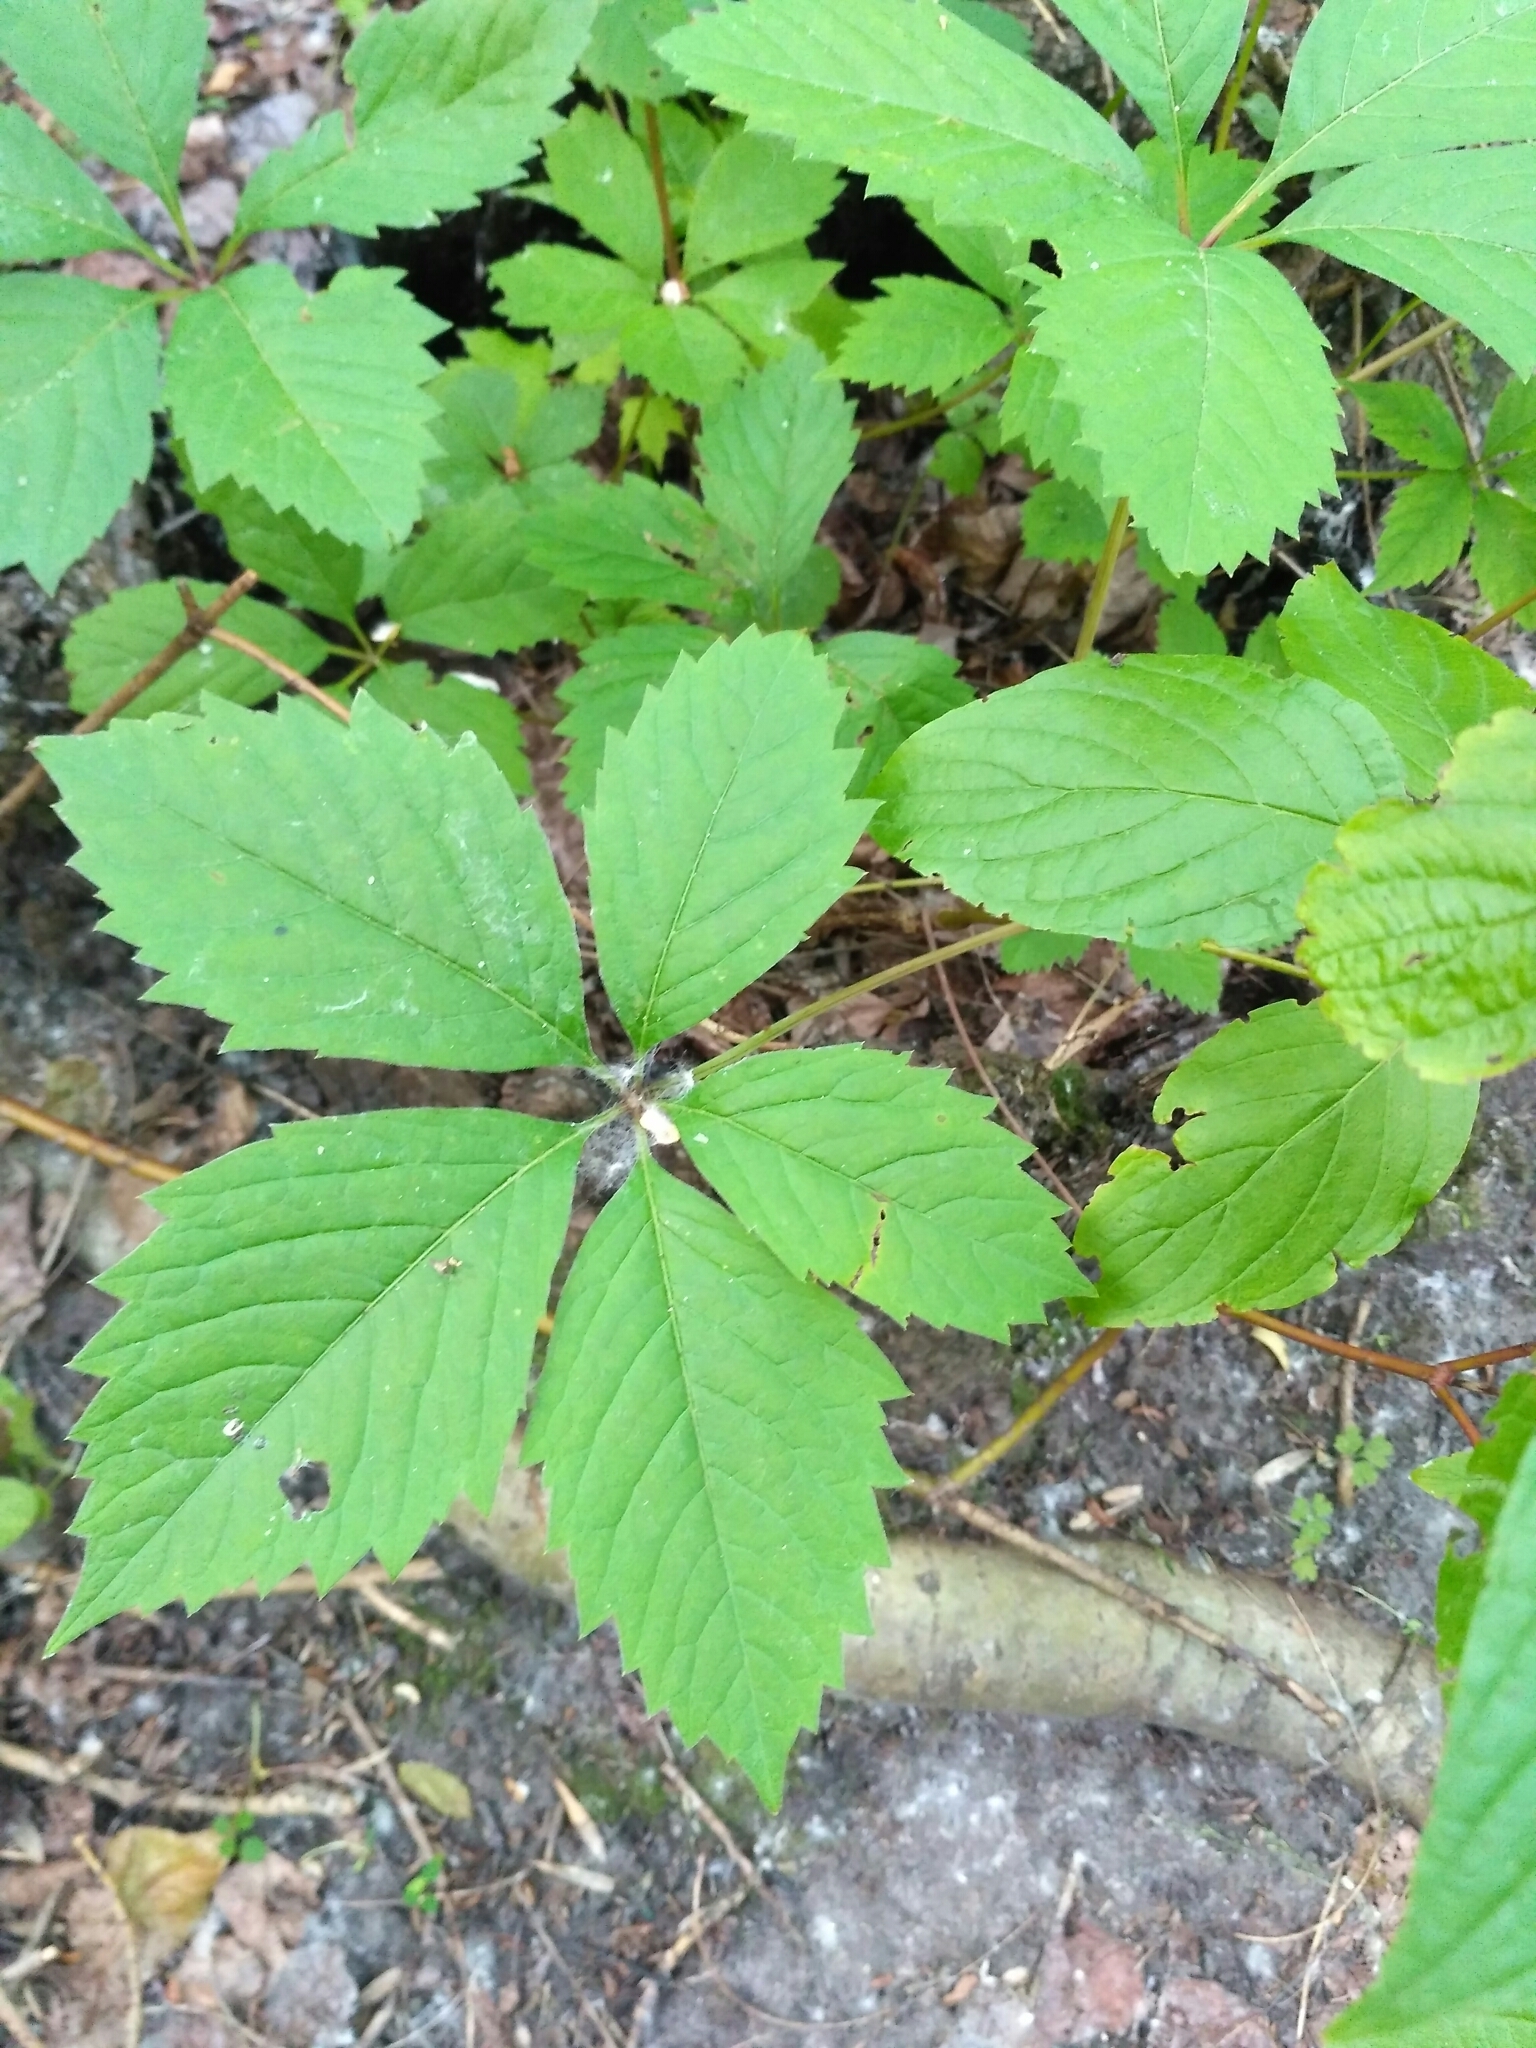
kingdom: Plantae
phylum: Tracheophyta
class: Magnoliopsida
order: Vitales
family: Vitaceae
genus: Parthenocissus
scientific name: Parthenocissus inserta
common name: False virginia-creeper
